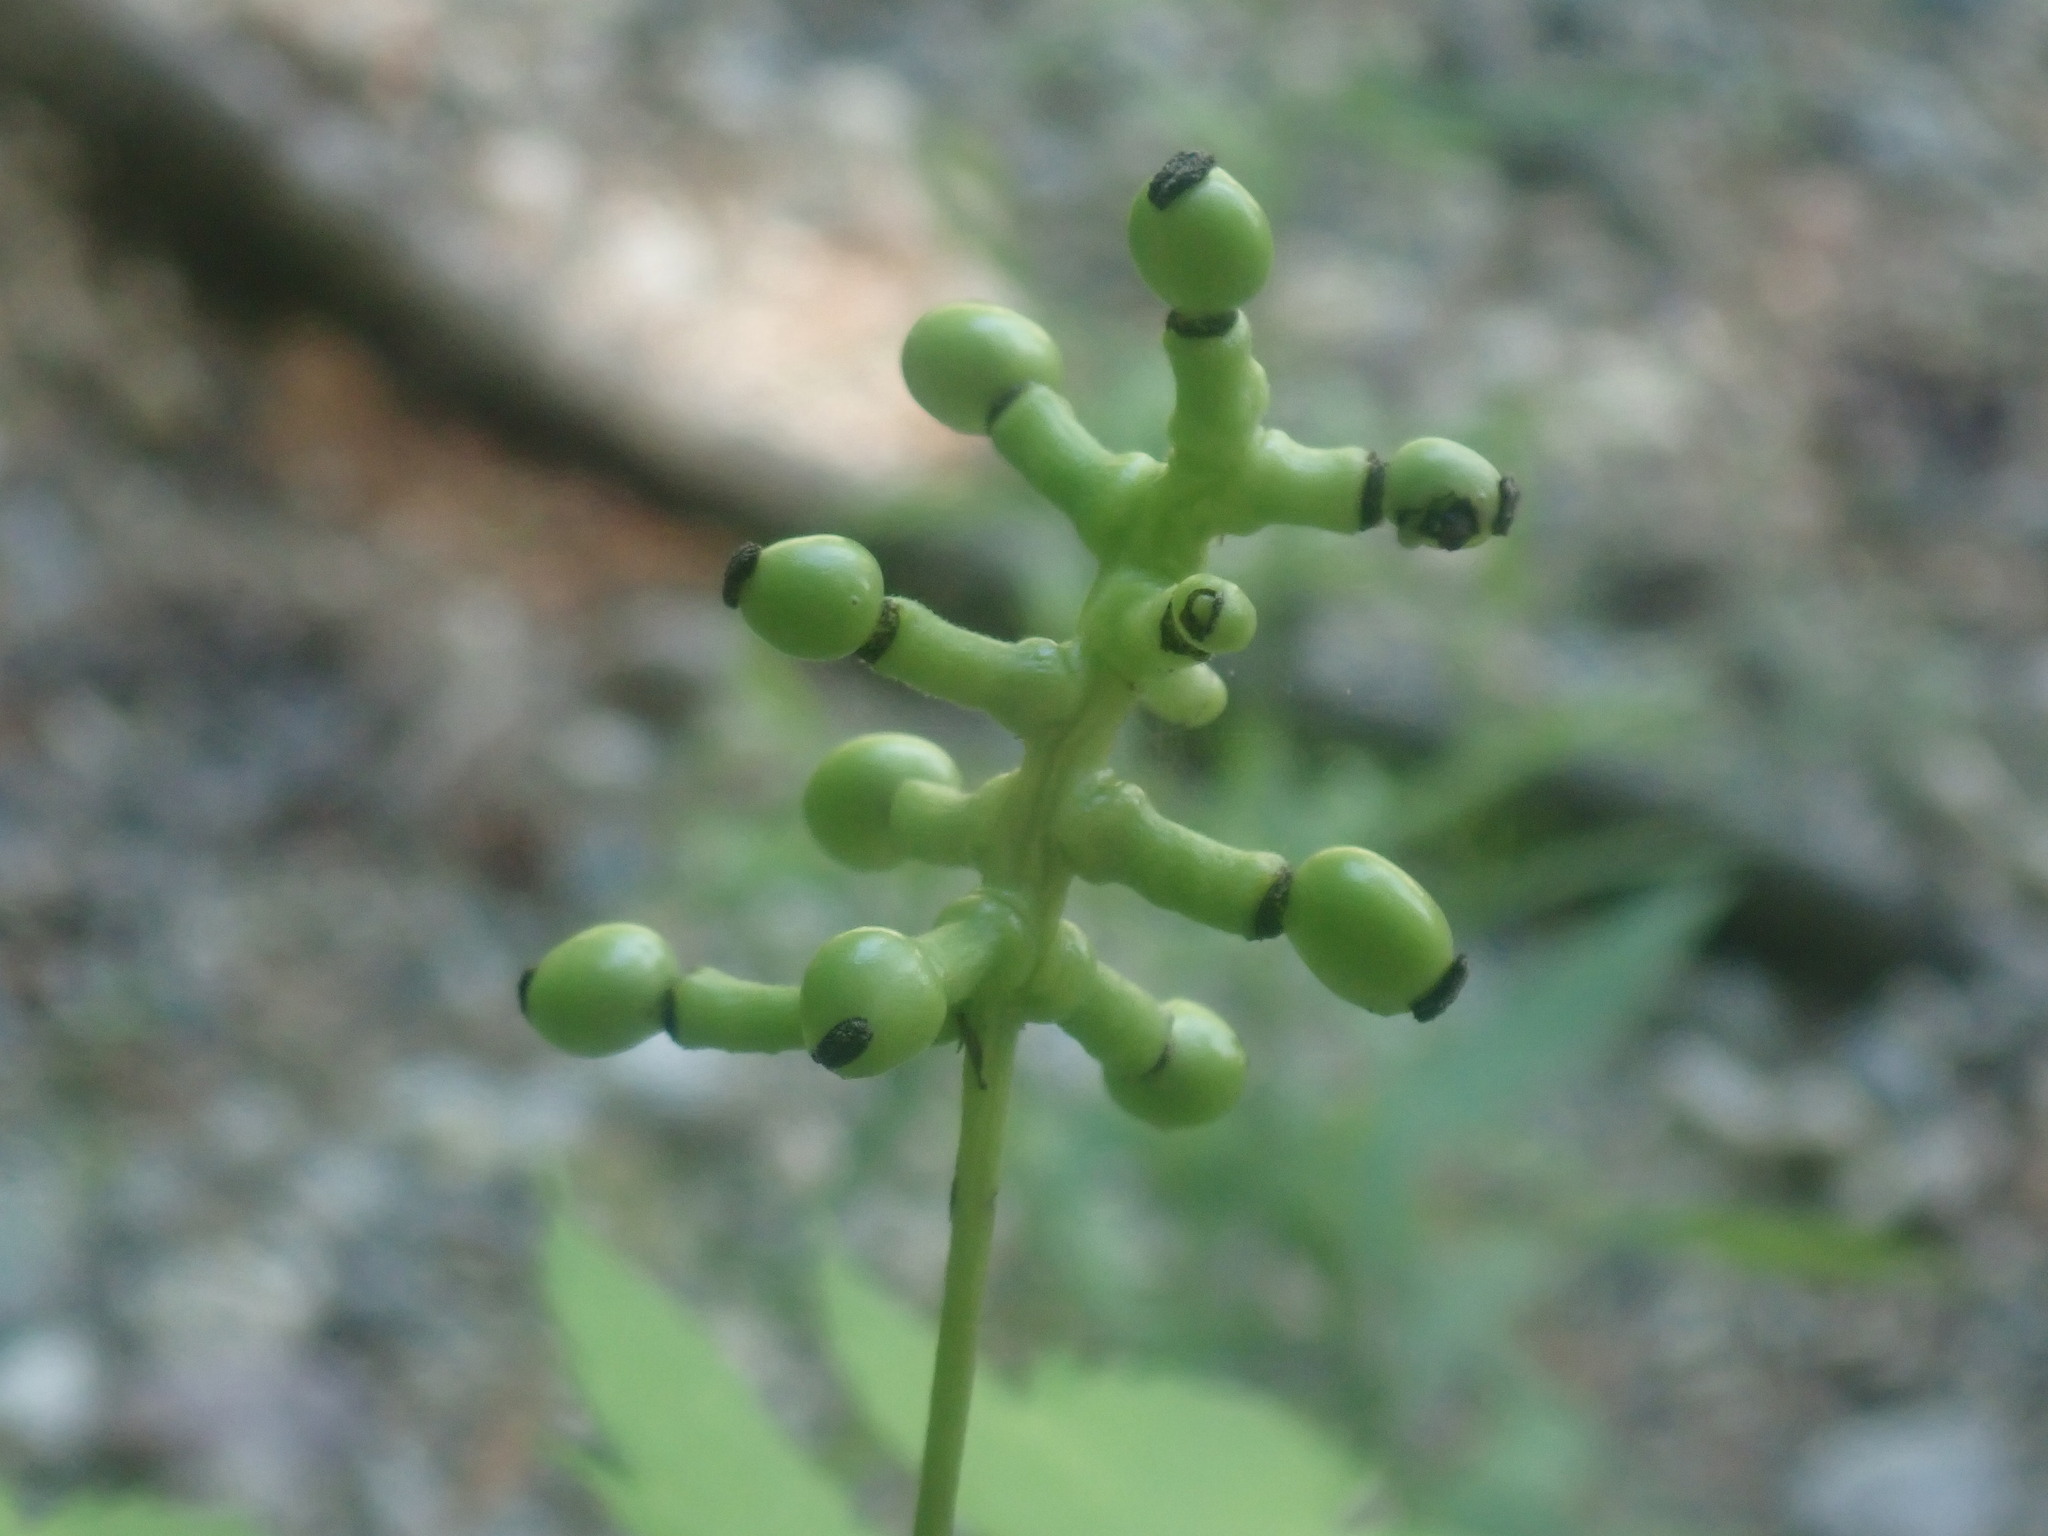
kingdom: Plantae
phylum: Tracheophyta
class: Magnoliopsida
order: Ranunculales
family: Ranunculaceae
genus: Actaea
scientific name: Actaea pachypoda
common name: Doll's-eyes
